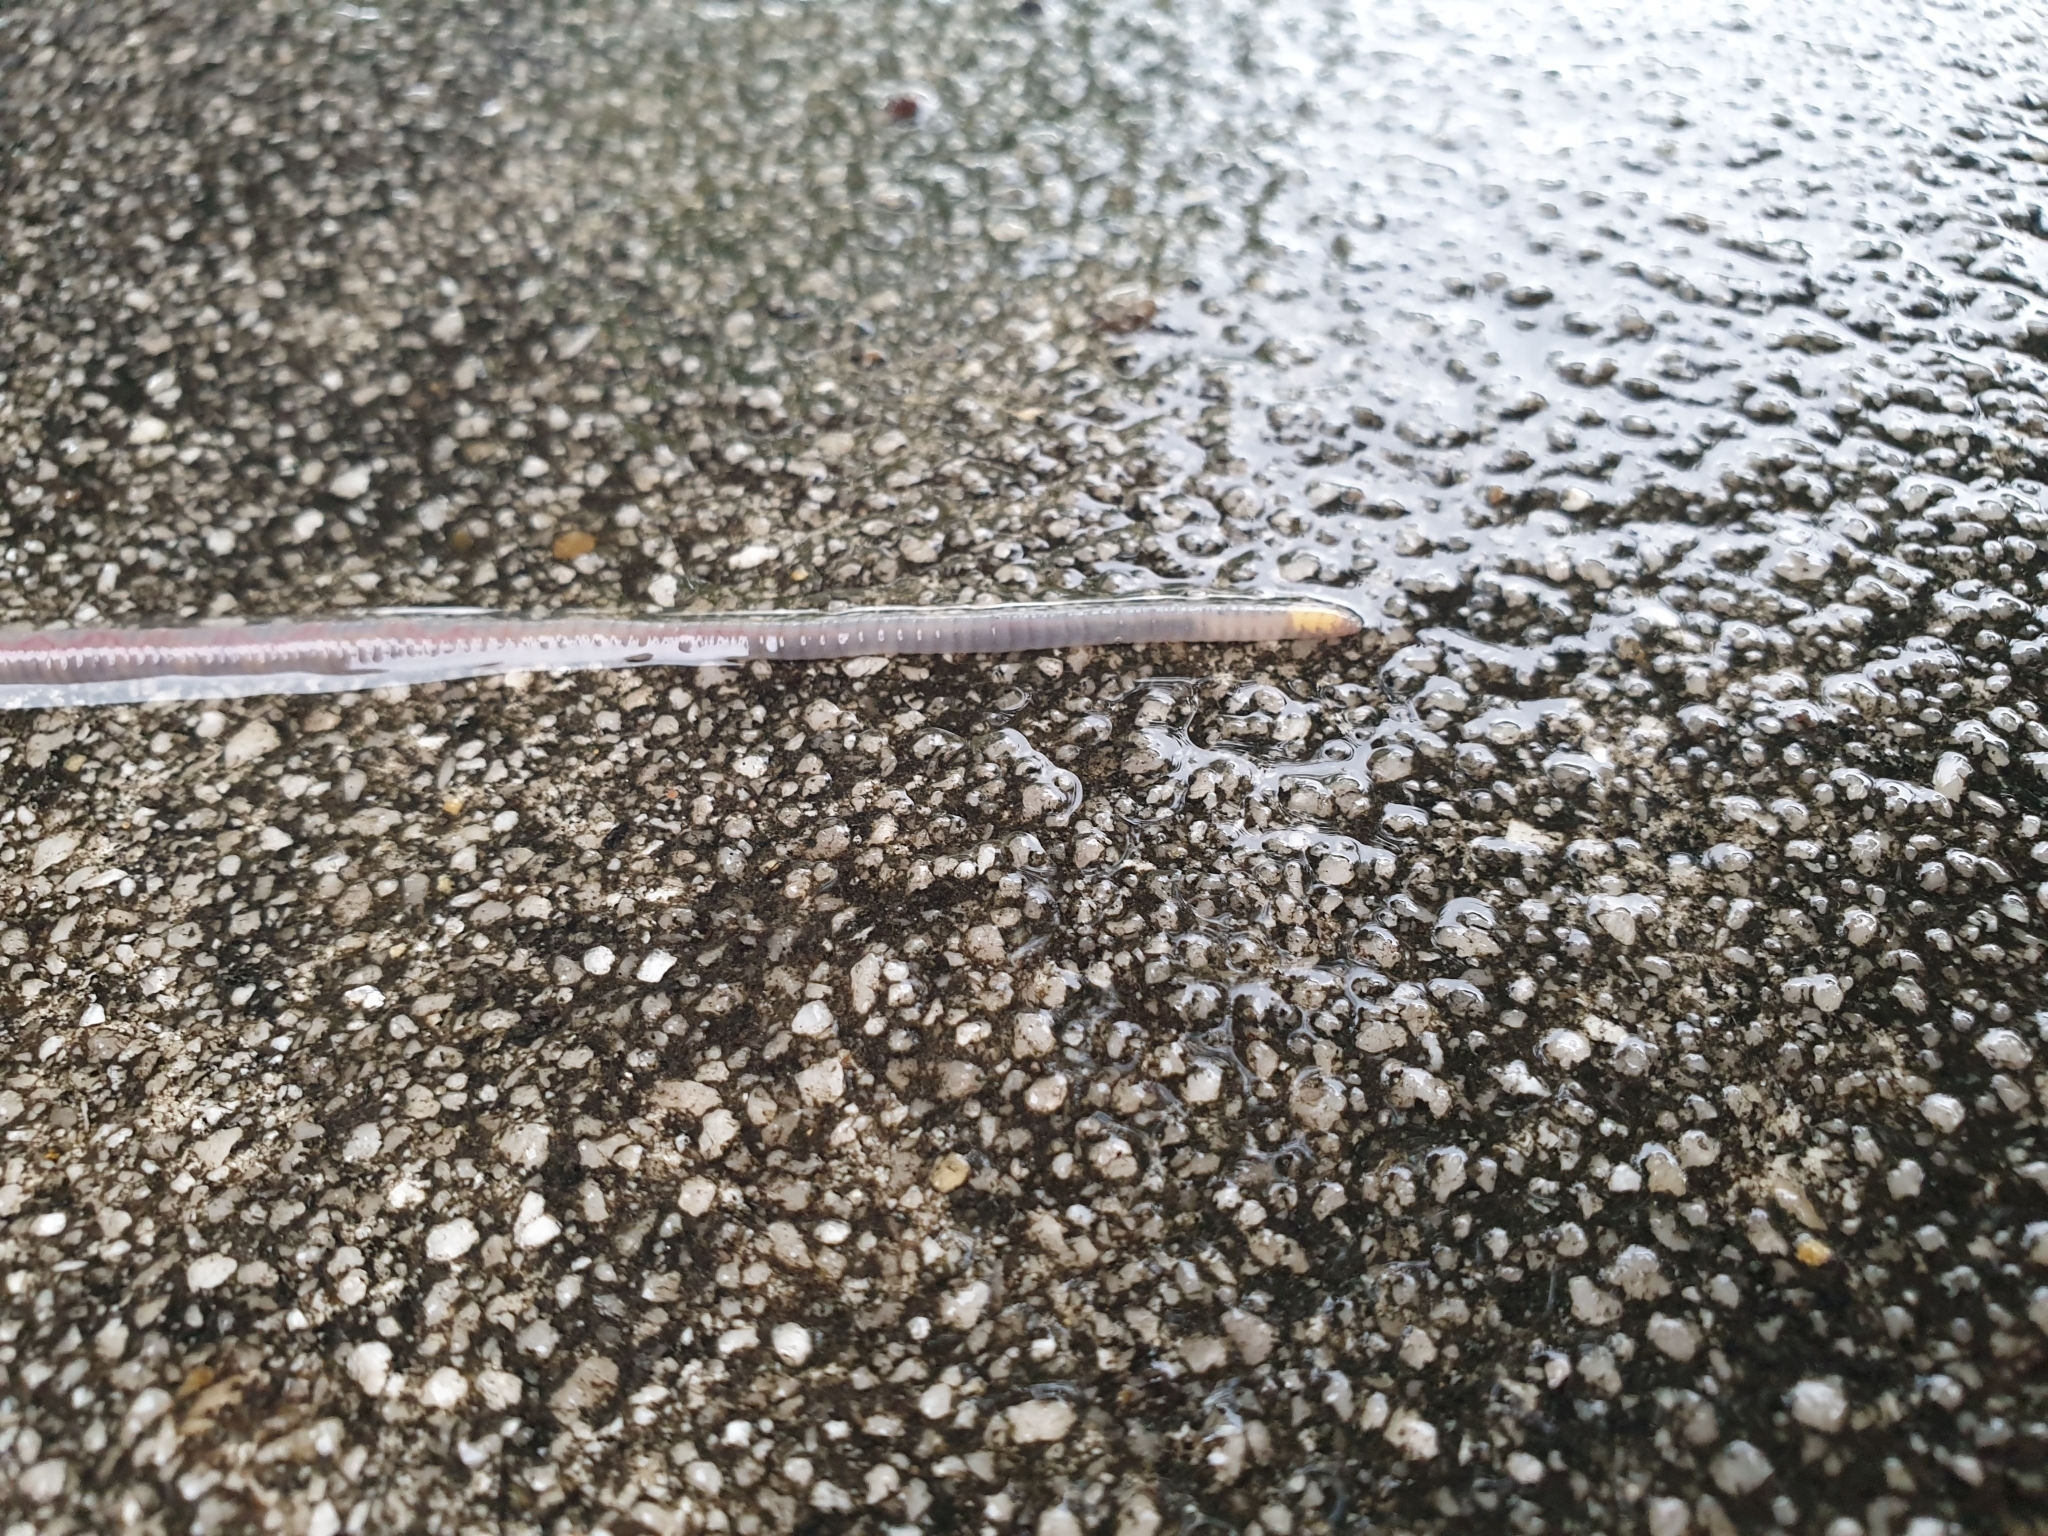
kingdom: Animalia
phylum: Annelida
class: Clitellata
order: Crassiclitellata
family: Lumbricidae
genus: Aporrectodea
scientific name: Aporrectodea icterica
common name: Earthworm
